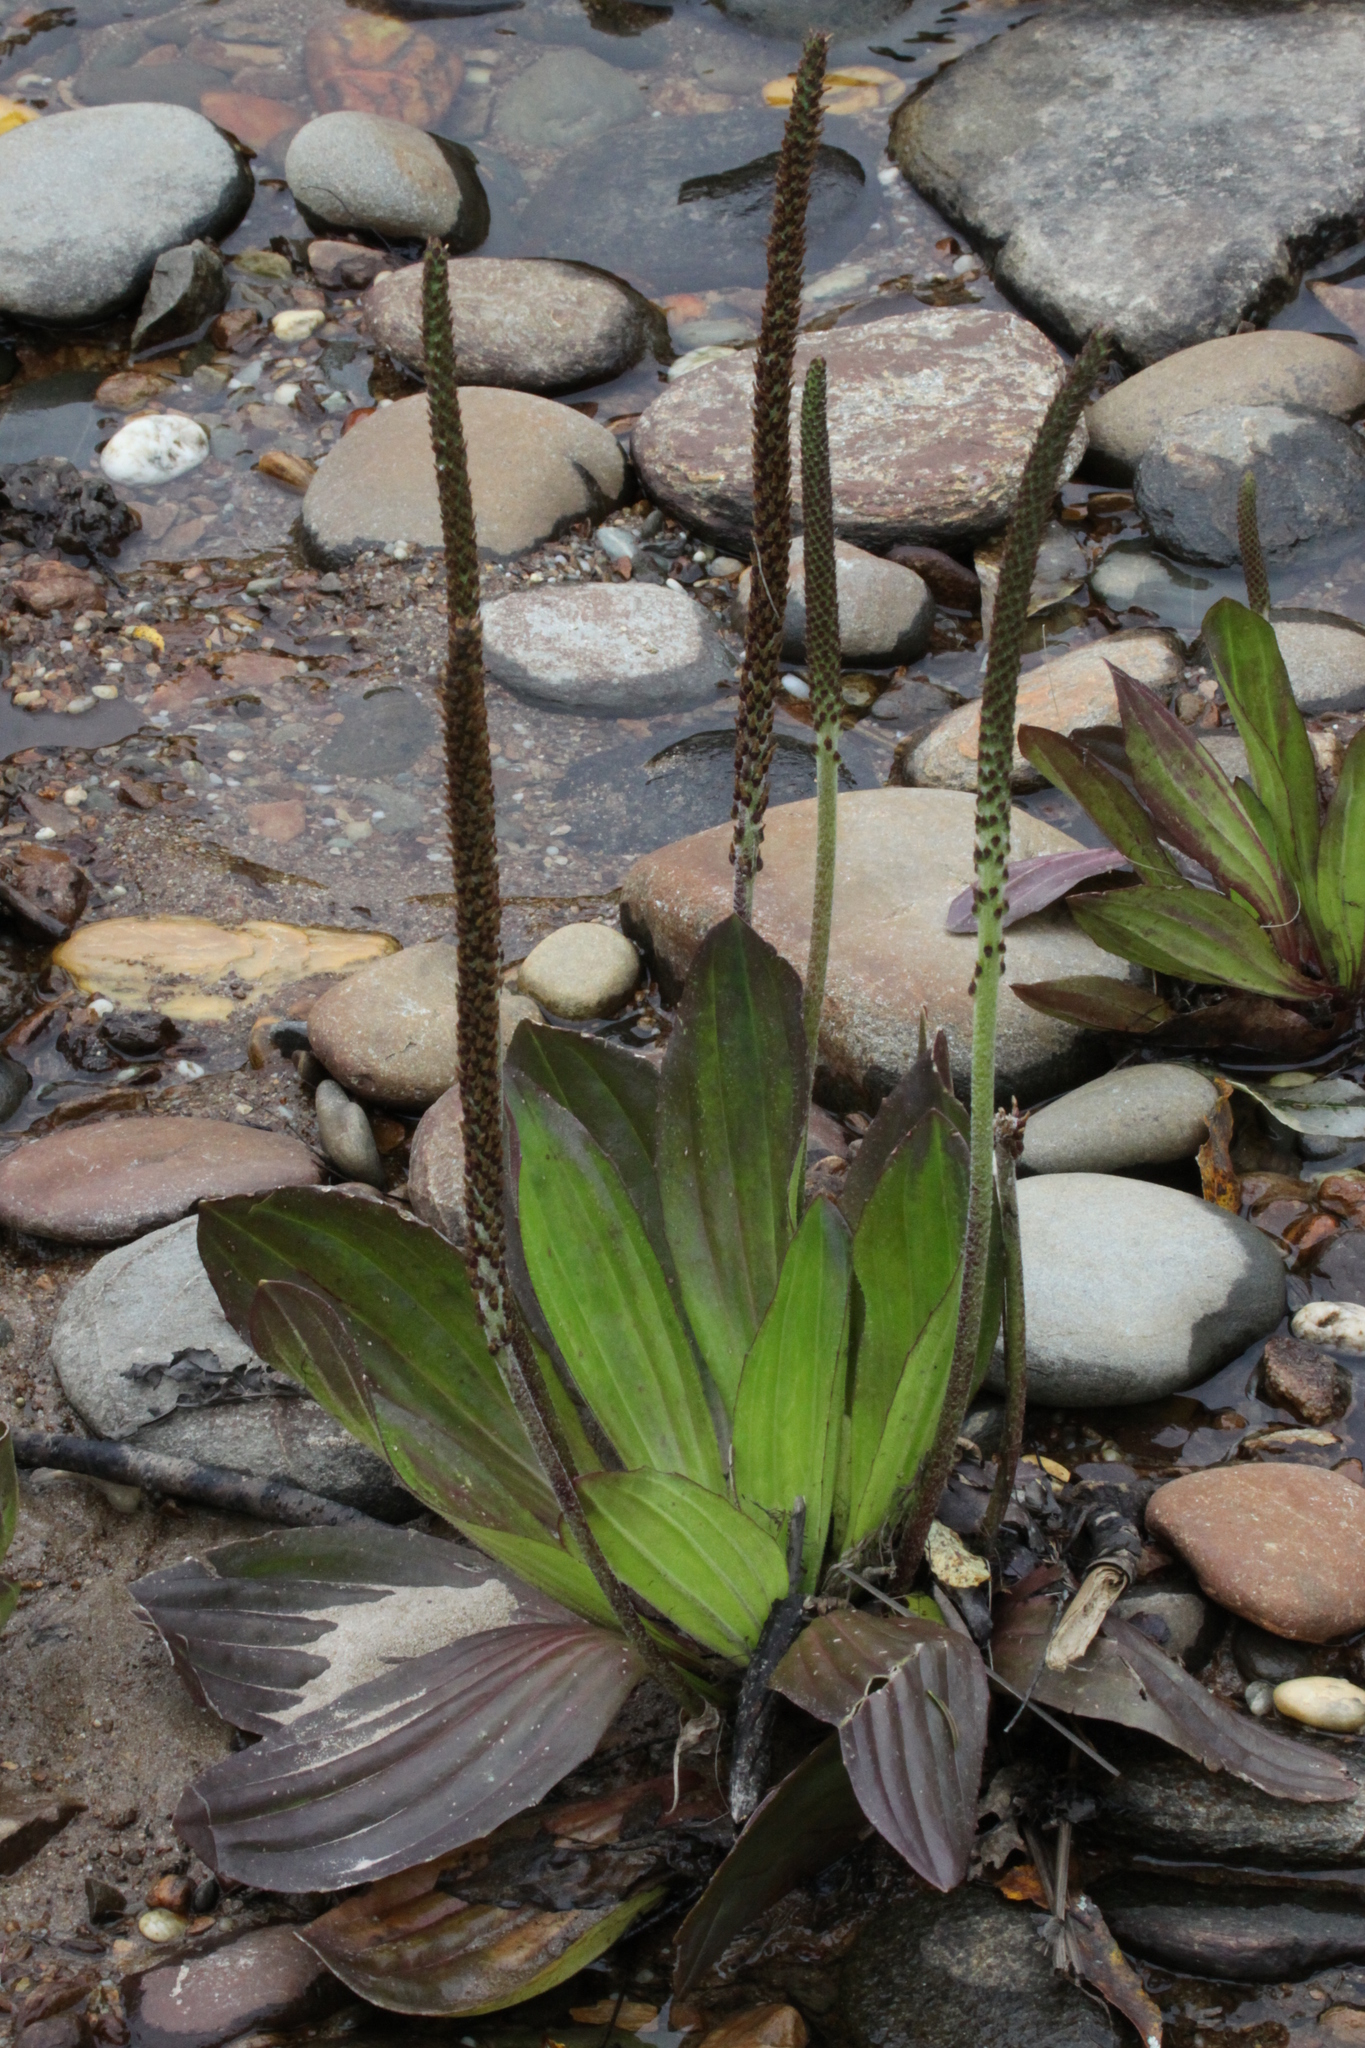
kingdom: Plantae
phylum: Tracheophyta
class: Magnoliopsida
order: Lamiales
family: Plantaginaceae
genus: Plantago
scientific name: Plantago australis
